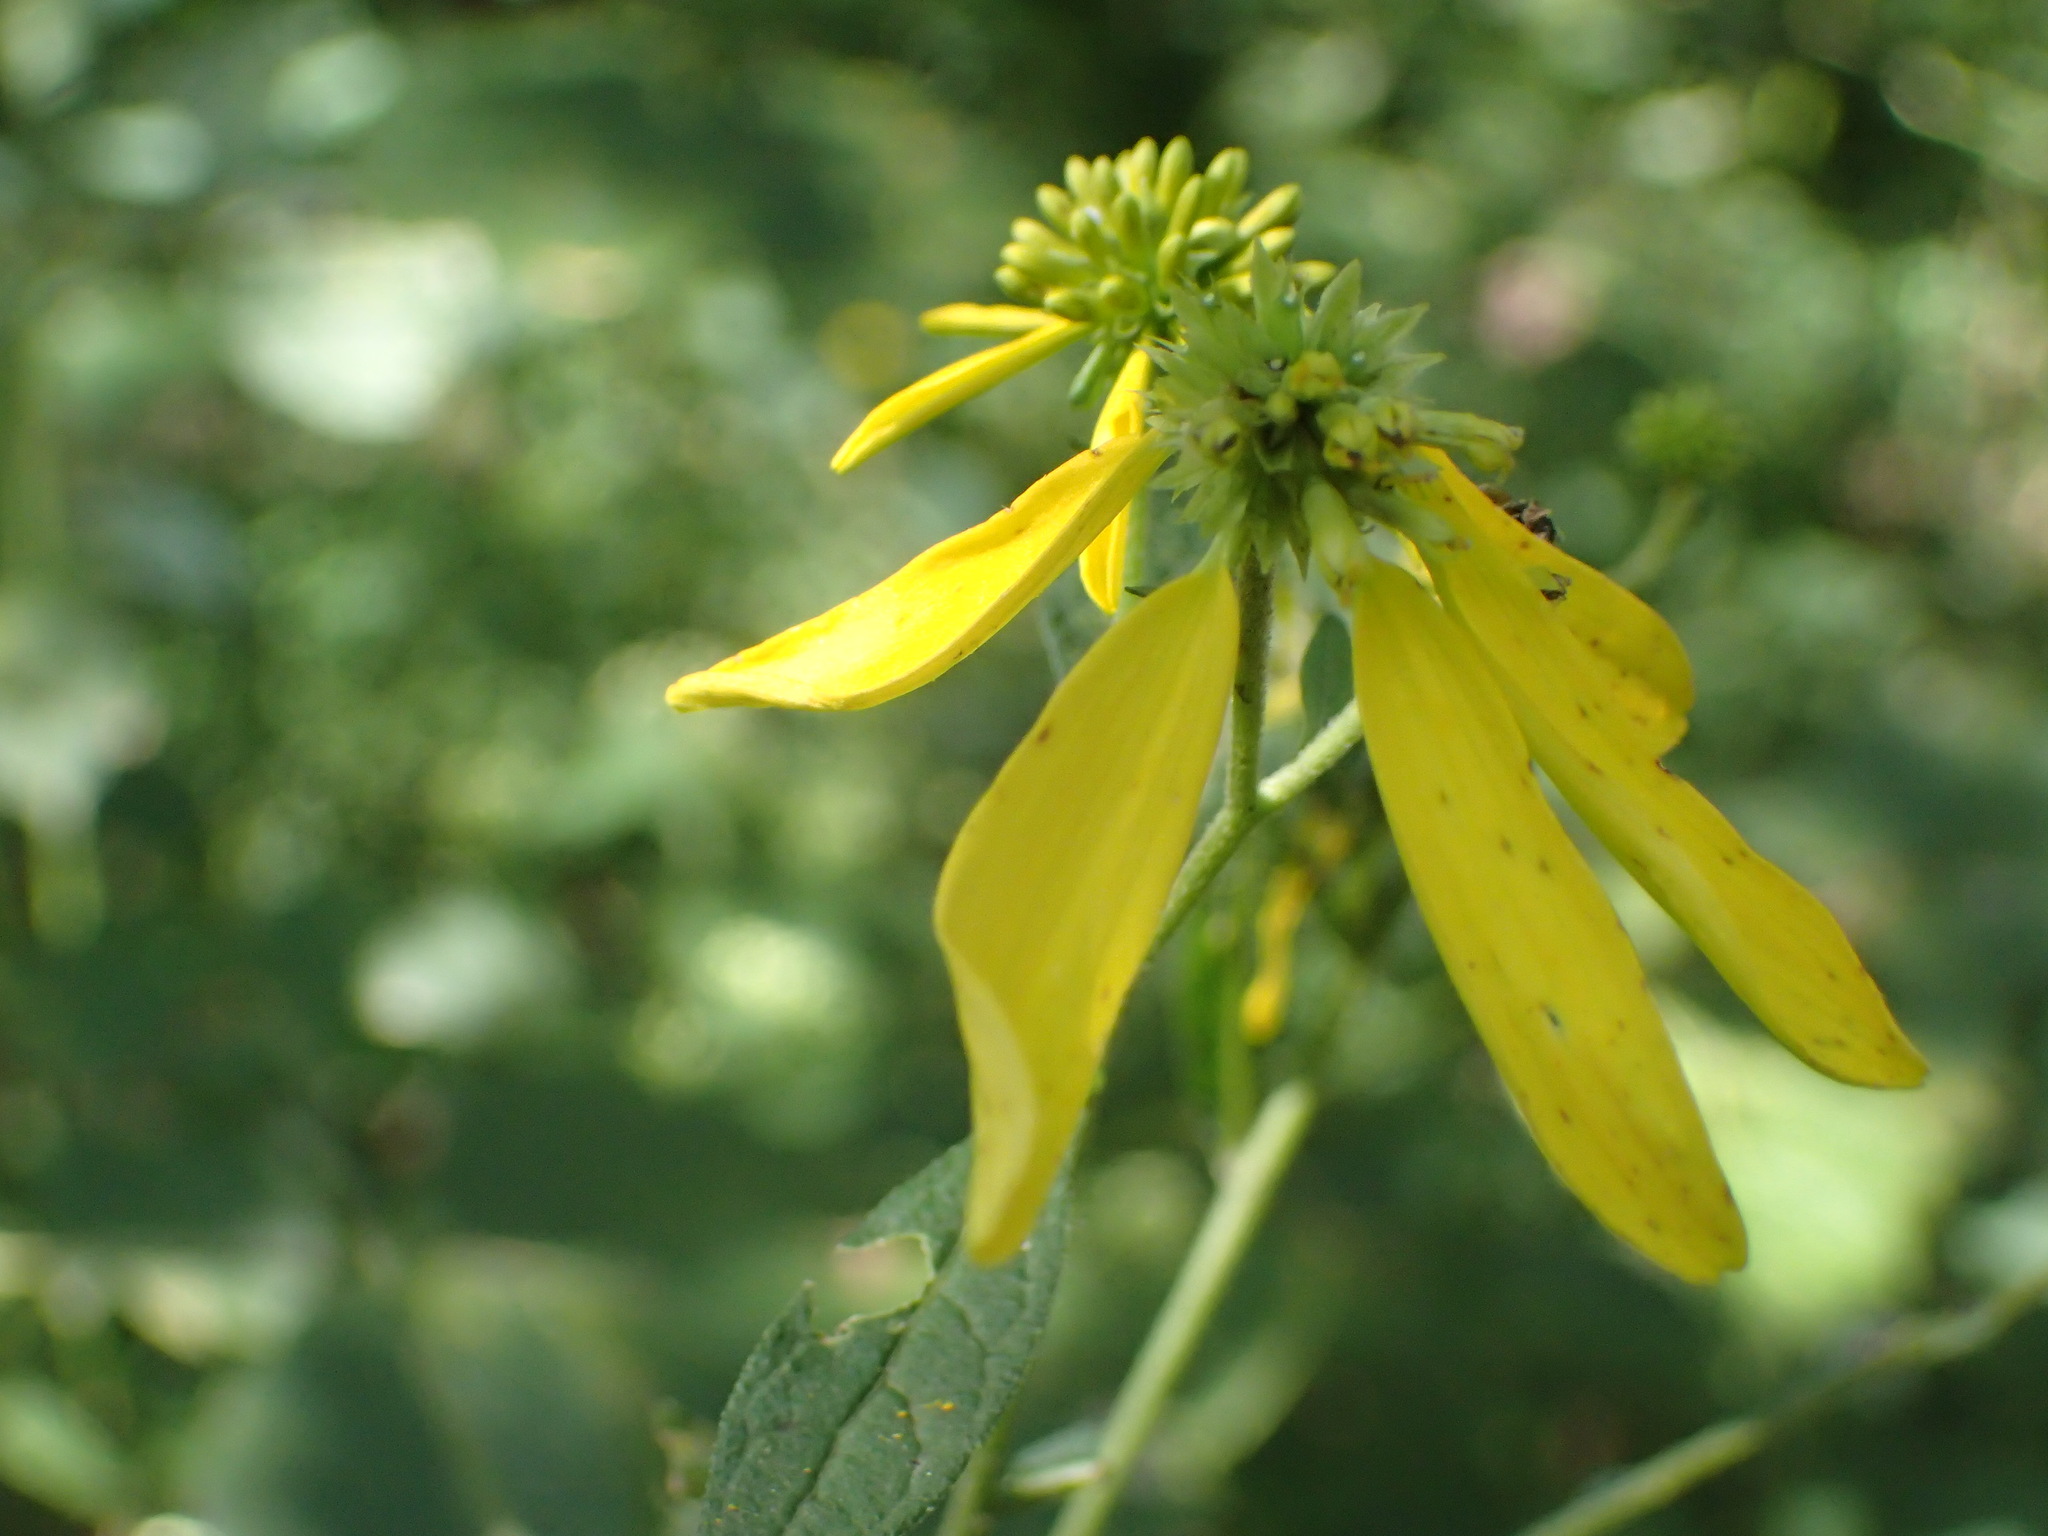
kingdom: Plantae
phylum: Tracheophyta
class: Magnoliopsida
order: Asterales
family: Asteraceae
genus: Verbesina
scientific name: Verbesina alternifolia
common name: Wingstem
